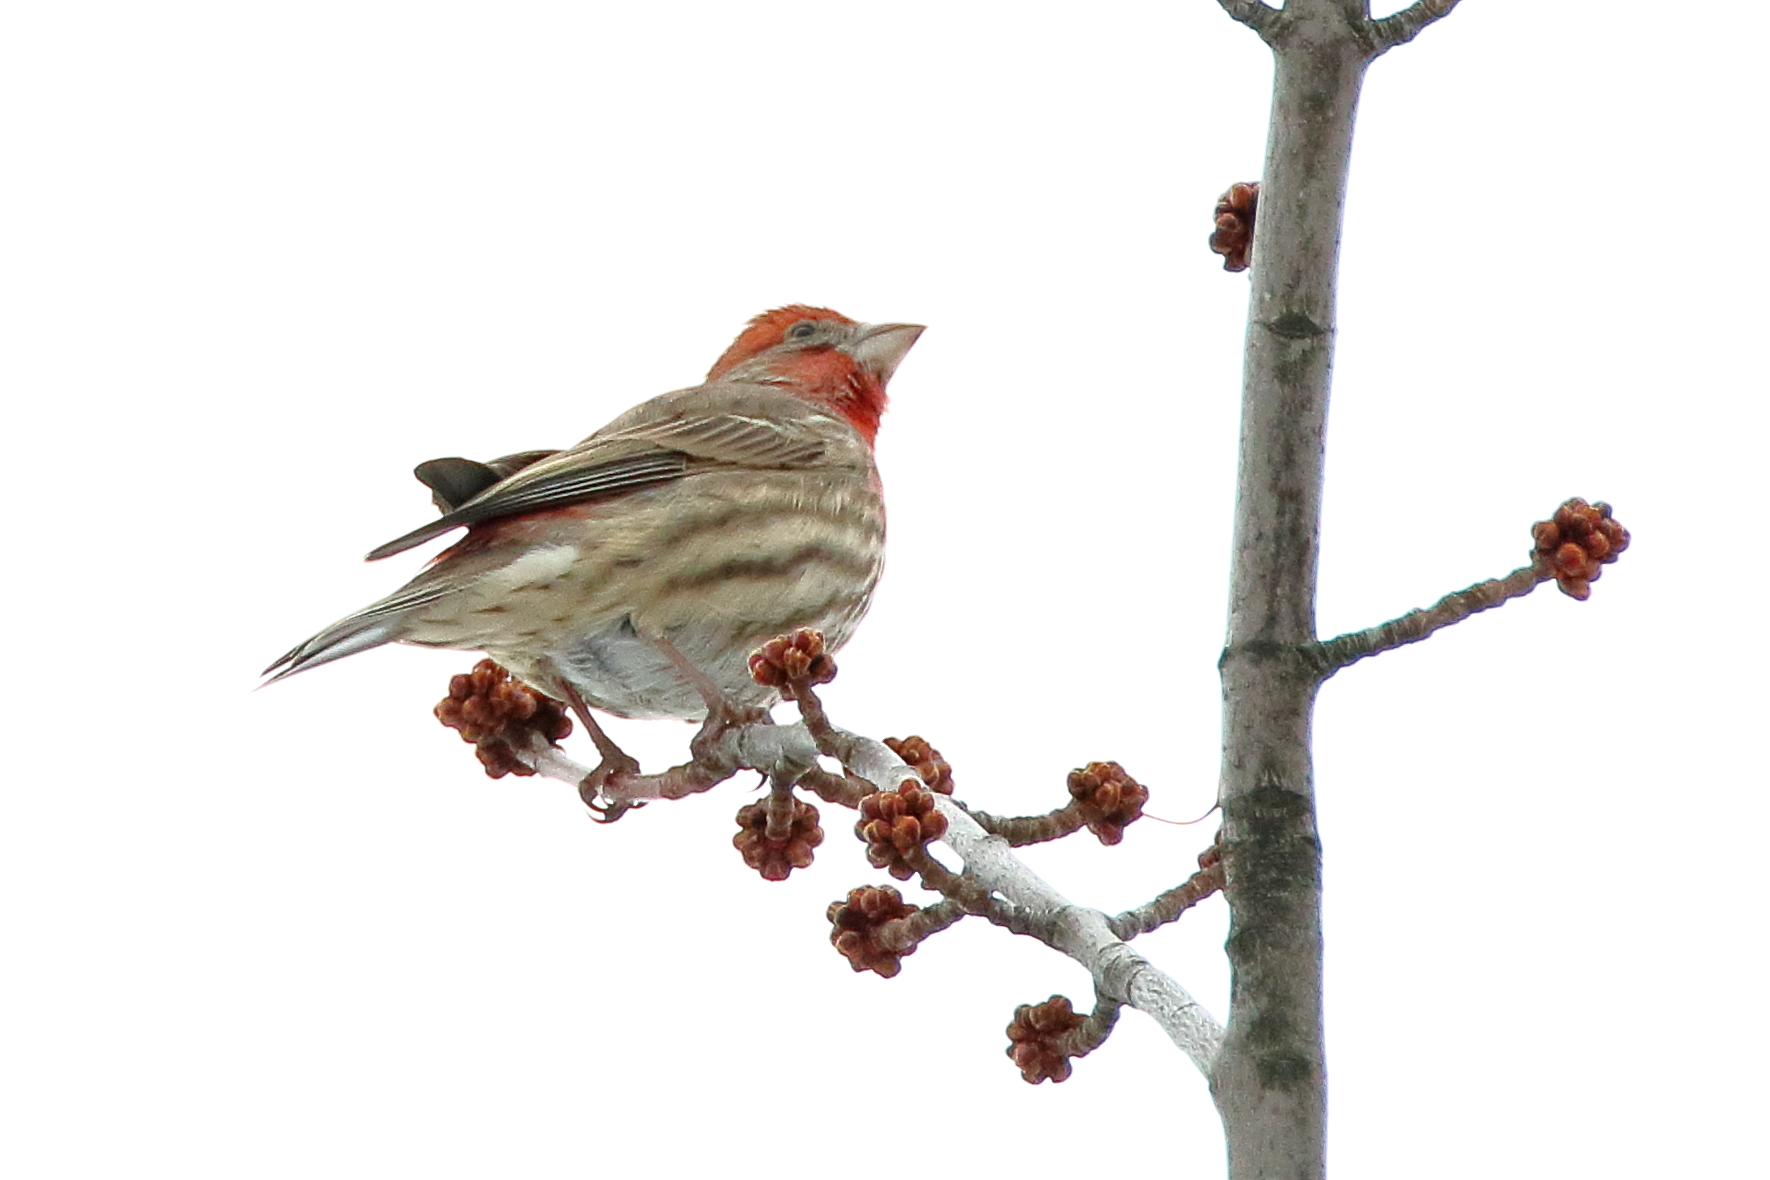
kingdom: Animalia
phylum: Chordata
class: Aves
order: Passeriformes
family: Fringillidae
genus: Haemorhous
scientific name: Haemorhous mexicanus
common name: House finch
